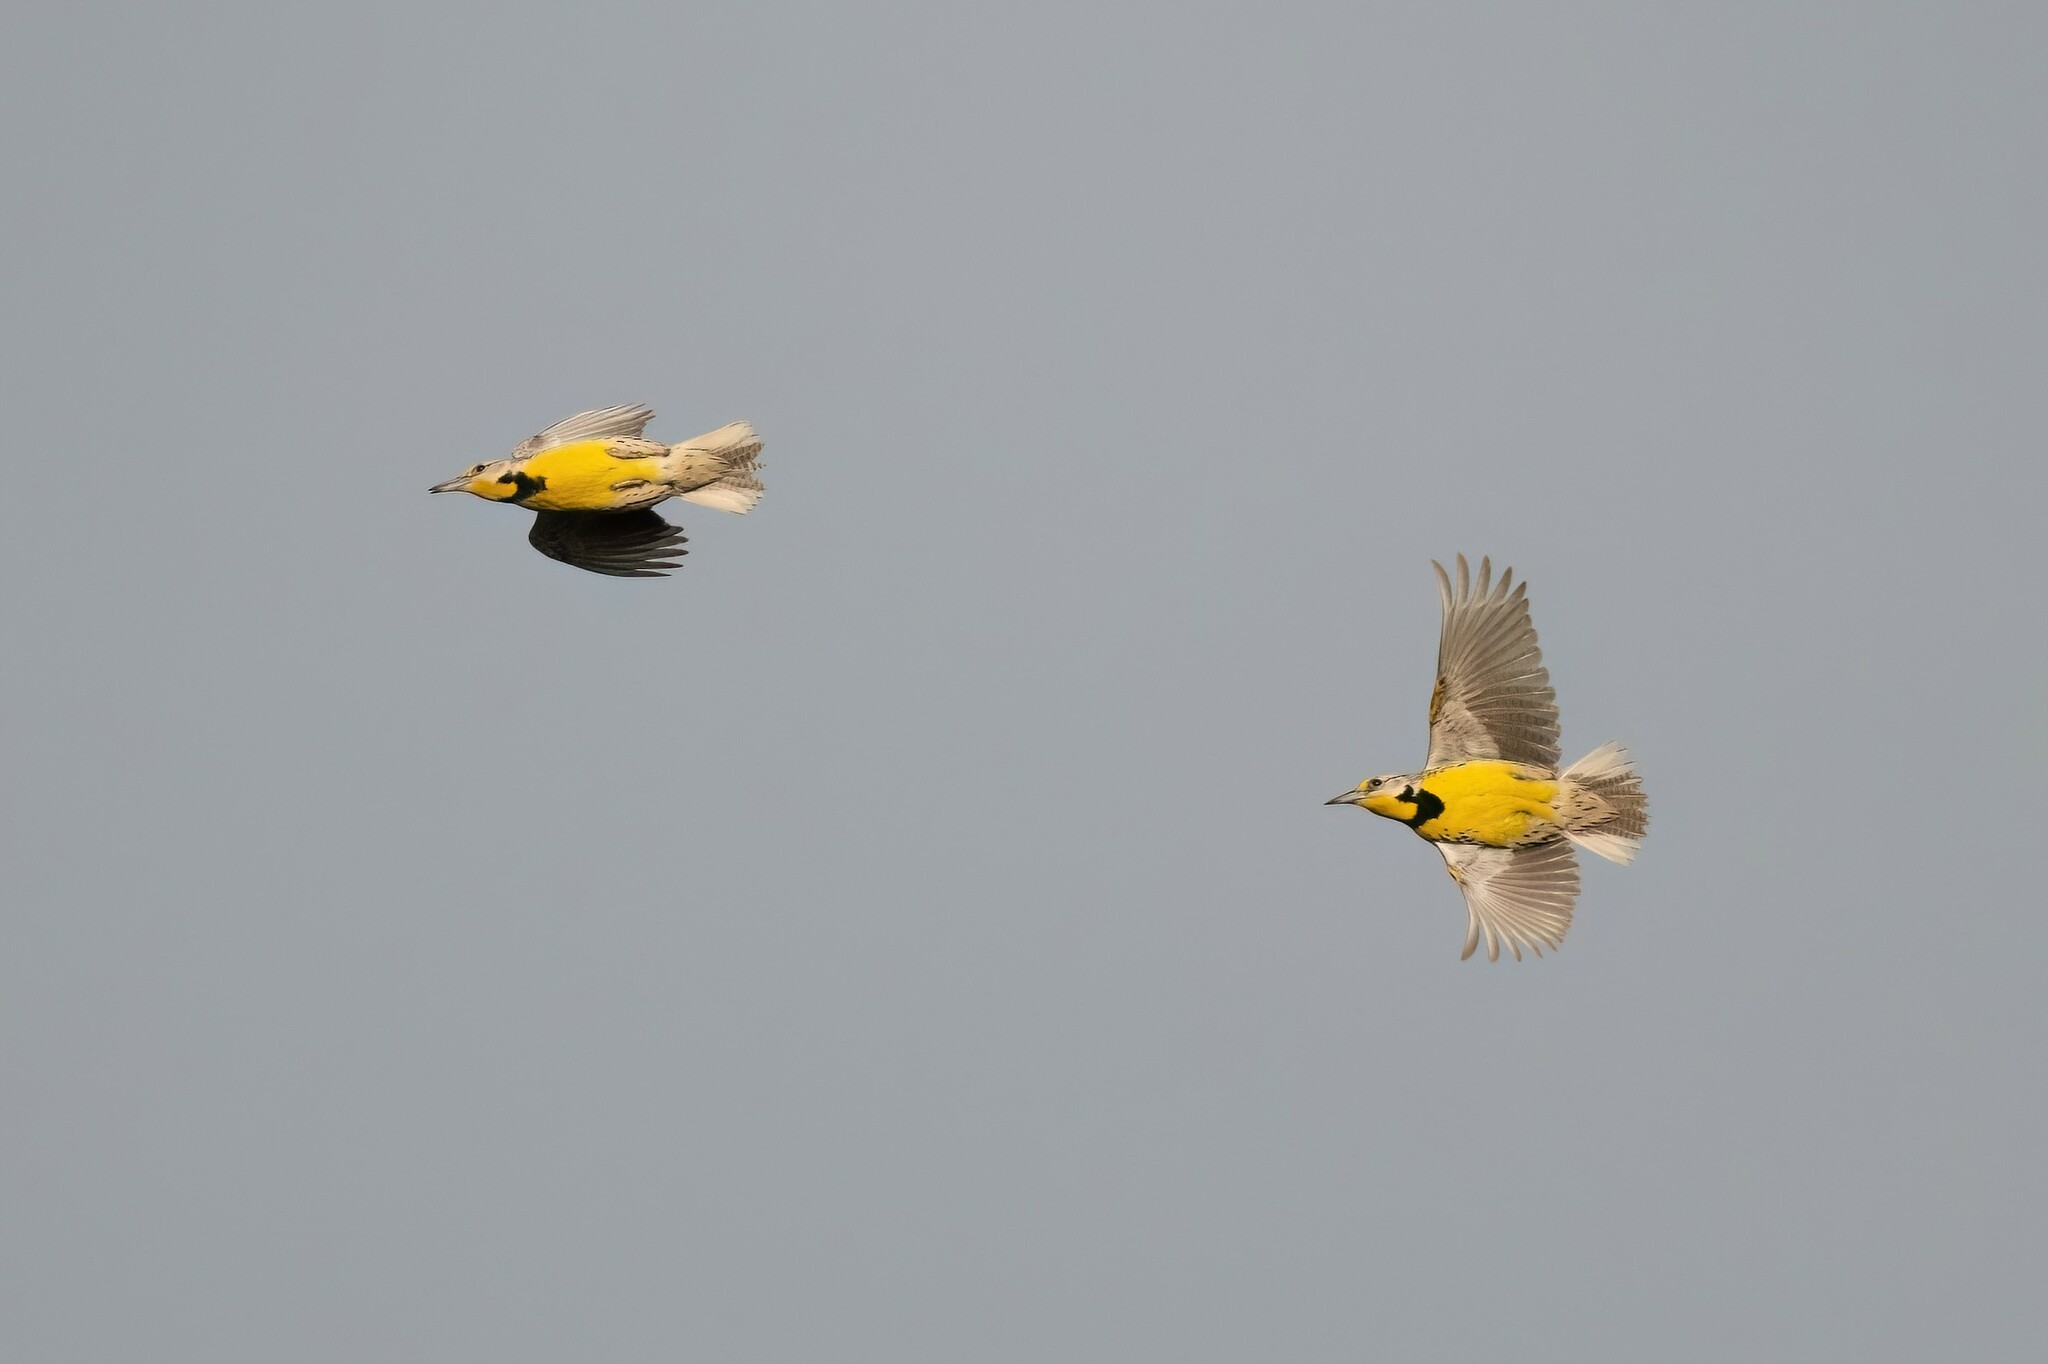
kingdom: Animalia
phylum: Chordata
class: Aves
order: Passeriformes
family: Icteridae
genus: Sturnella
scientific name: Sturnella magna
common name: Eastern meadowlark
